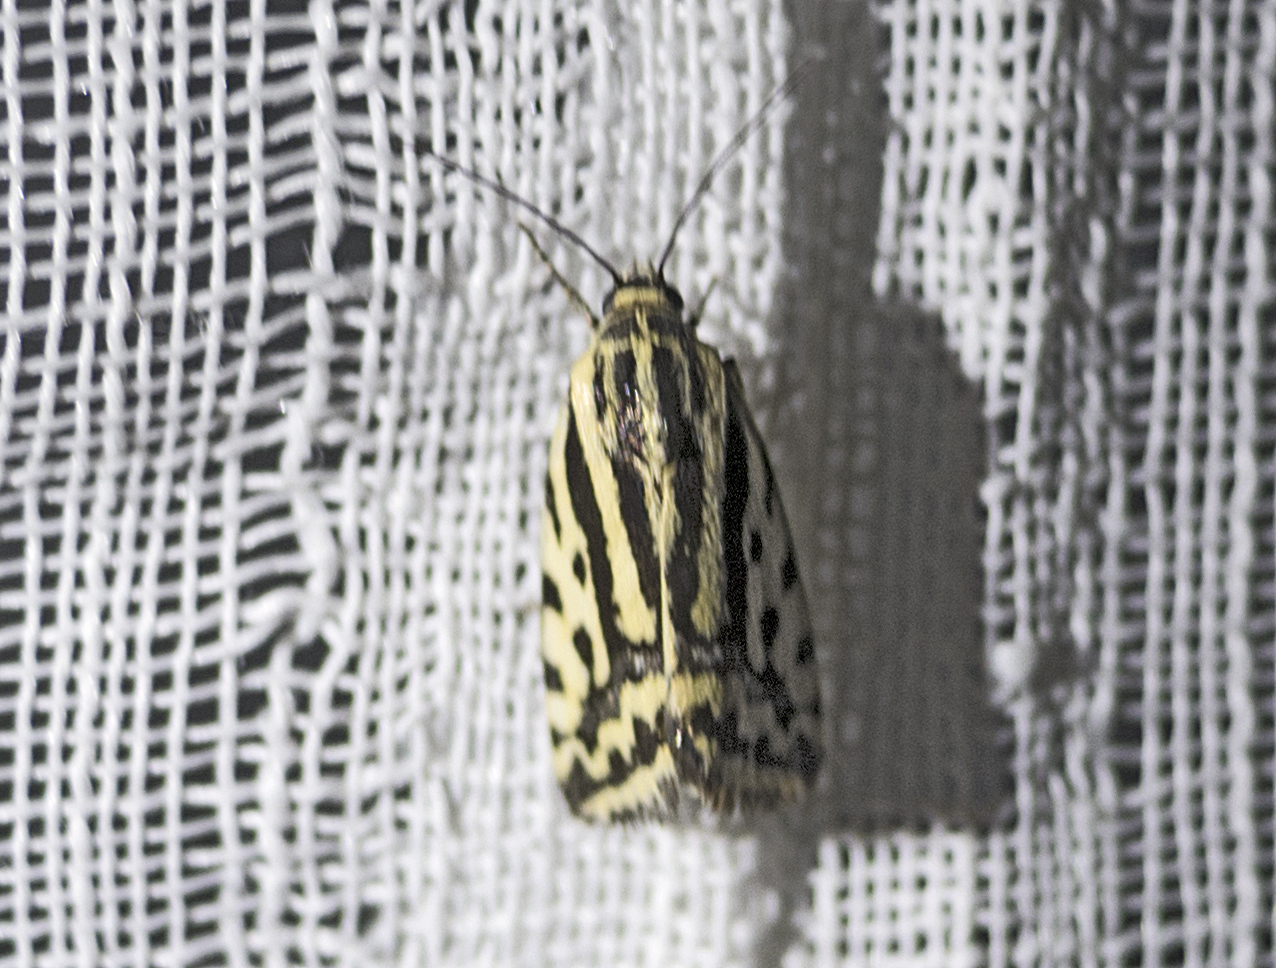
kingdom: Animalia
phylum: Arthropoda
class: Insecta
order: Lepidoptera
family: Noctuidae
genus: Acontia
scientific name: Acontia trabealis
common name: Spotted sulphur
